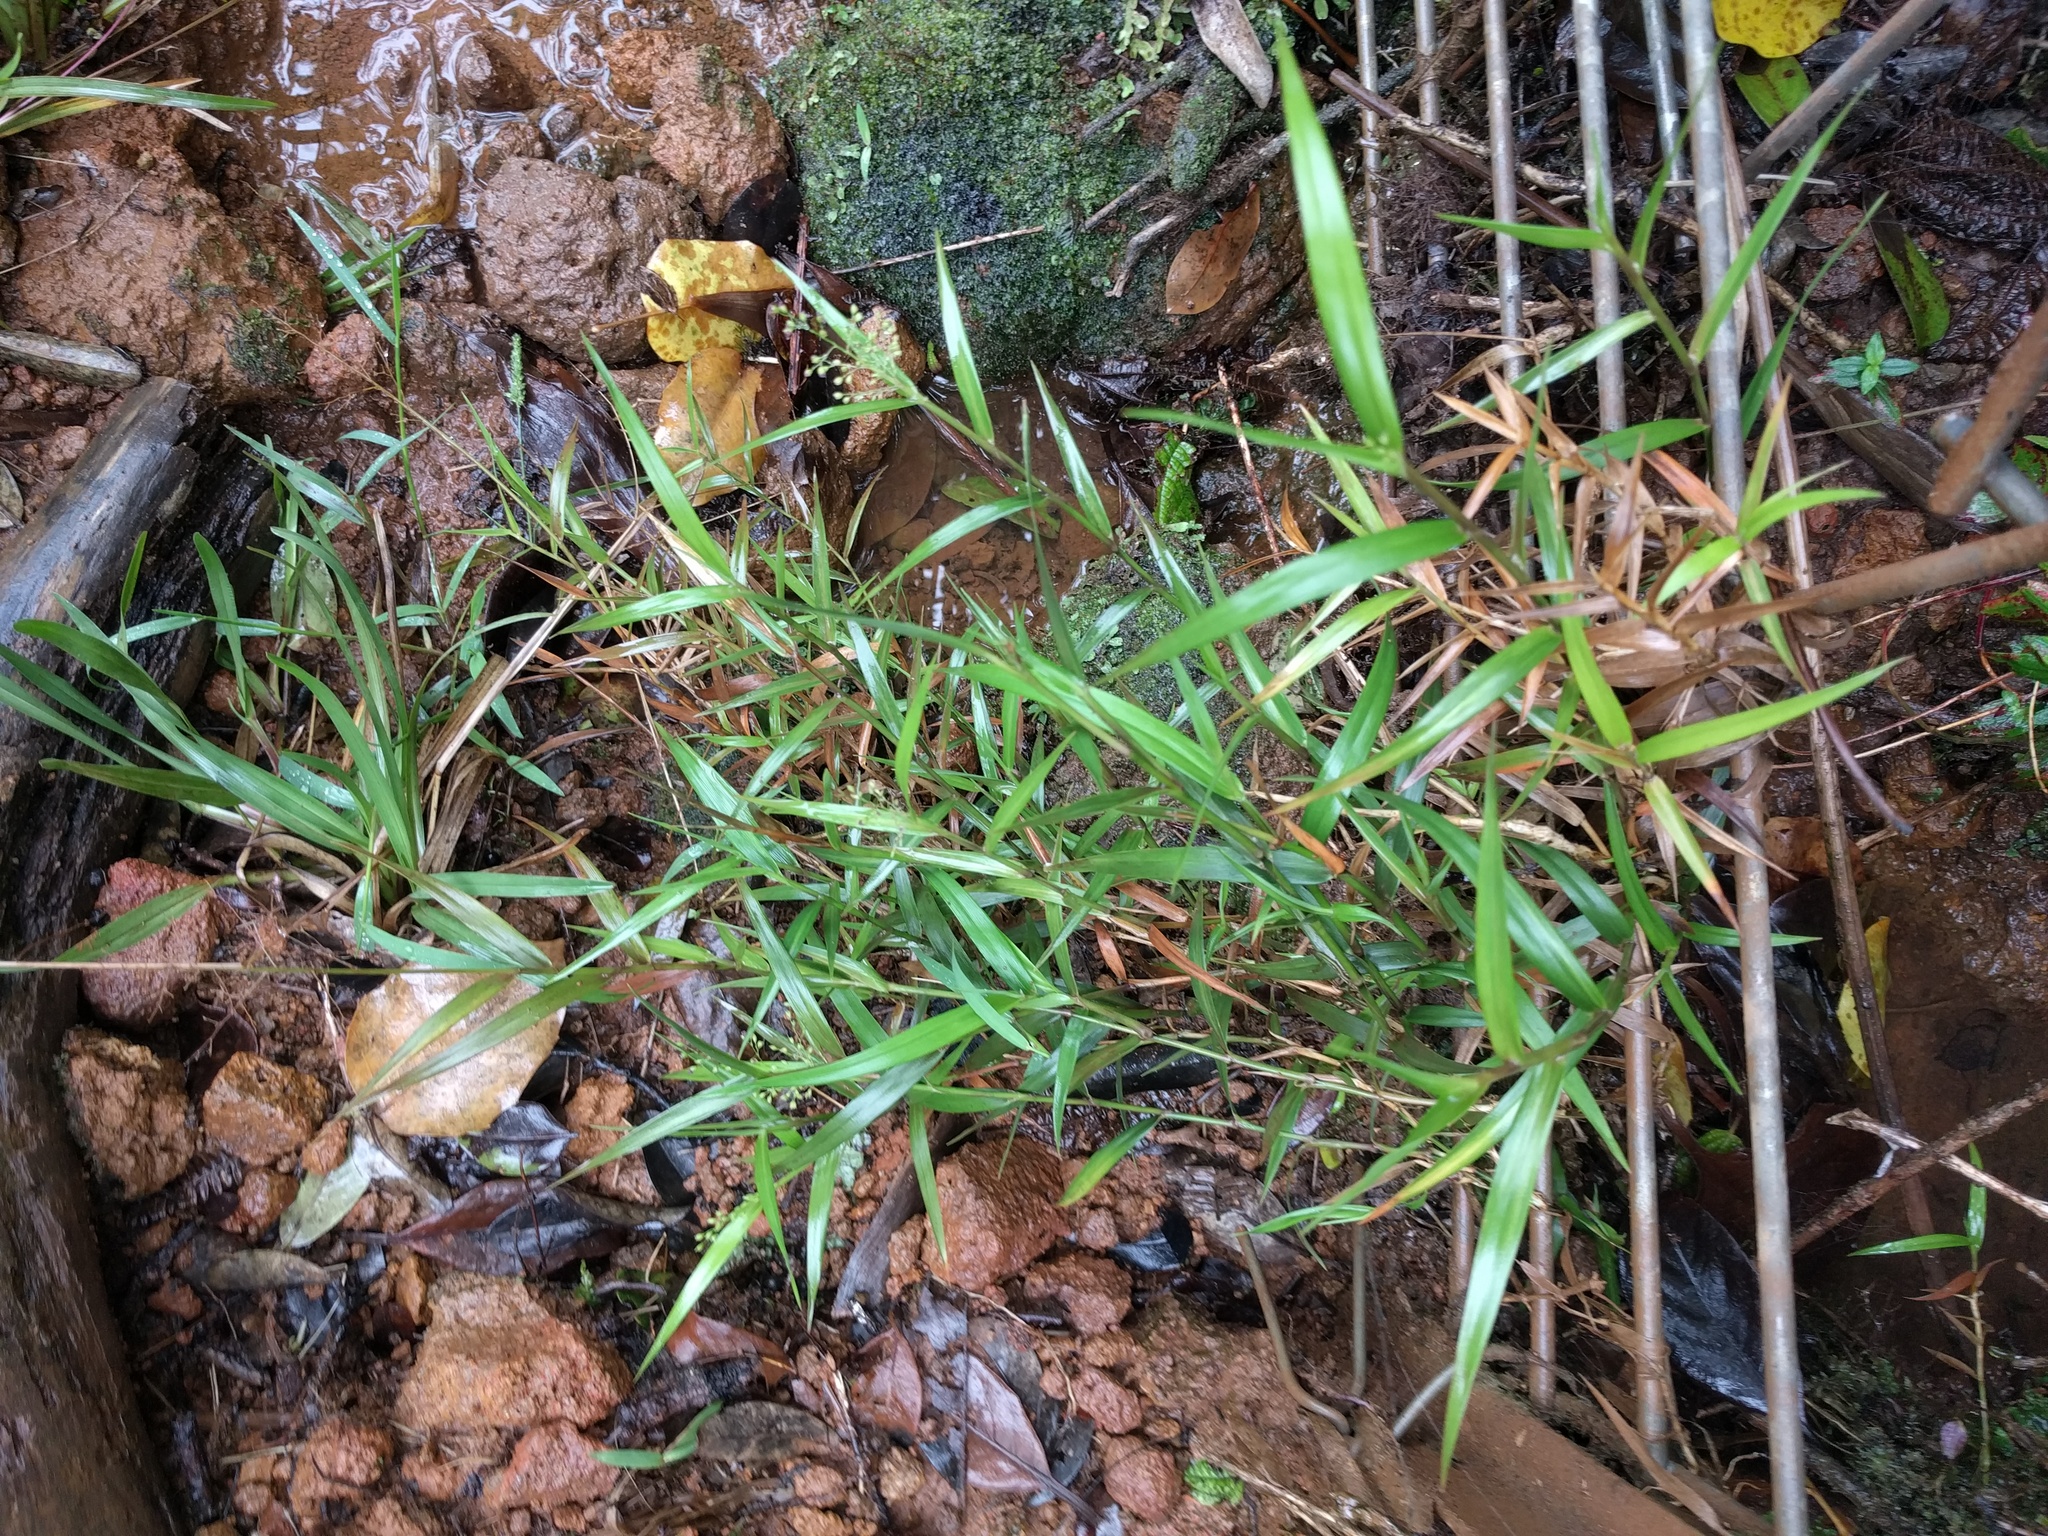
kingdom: Plantae
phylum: Tracheophyta
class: Liliopsida
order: Poales
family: Poaceae
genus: Isachne
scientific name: Isachne distichophylla
